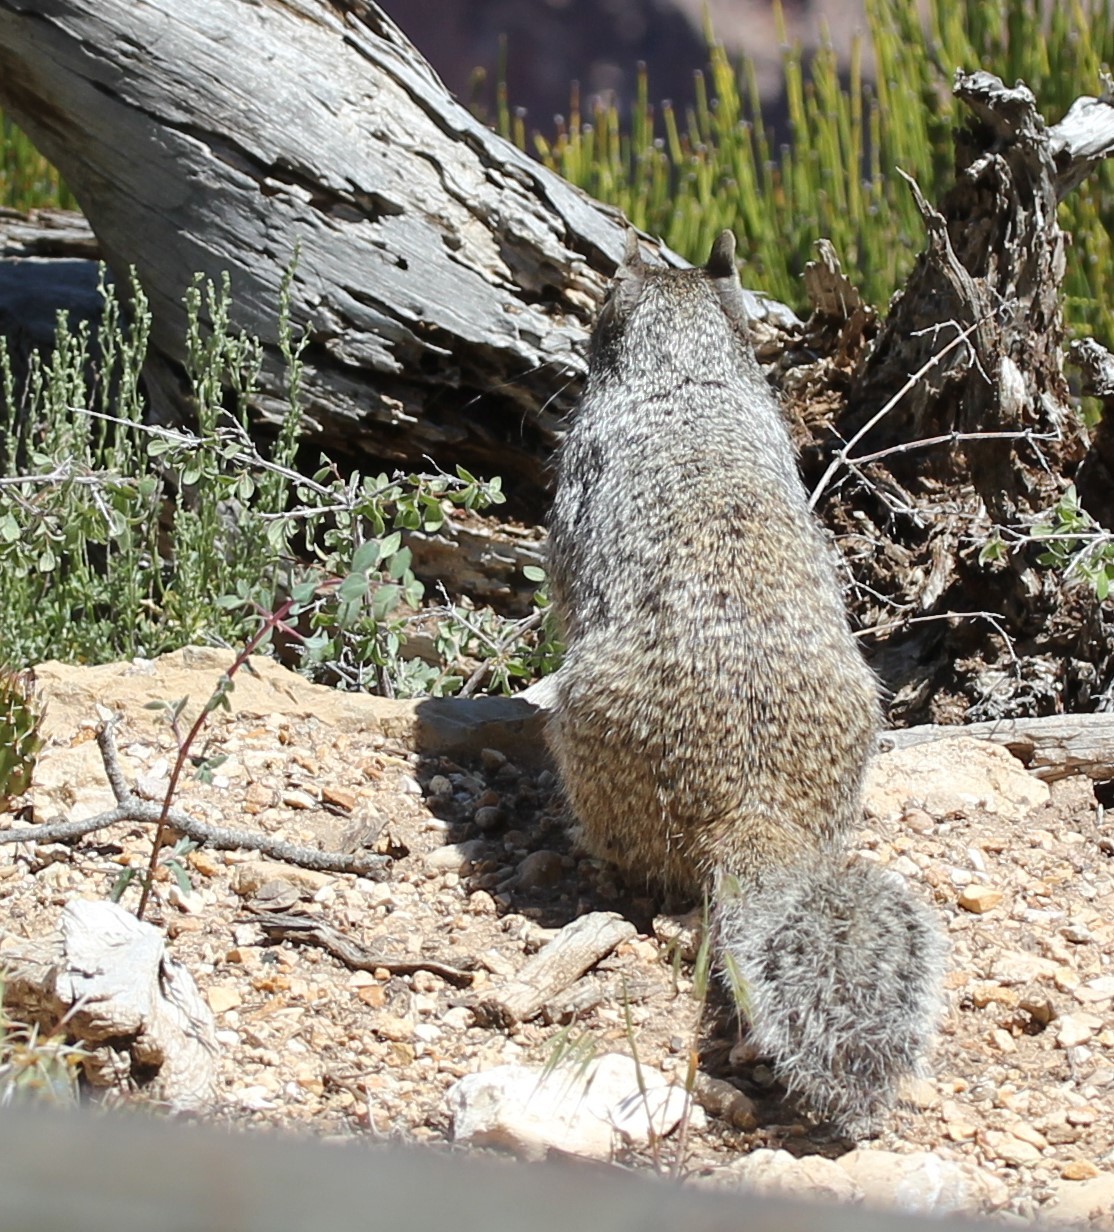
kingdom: Animalia
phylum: Chordata
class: Mammalia
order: Rodentia
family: Sciuridae
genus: Otospermophilus
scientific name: Otospermophilus variegatus
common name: Rock squirrel
